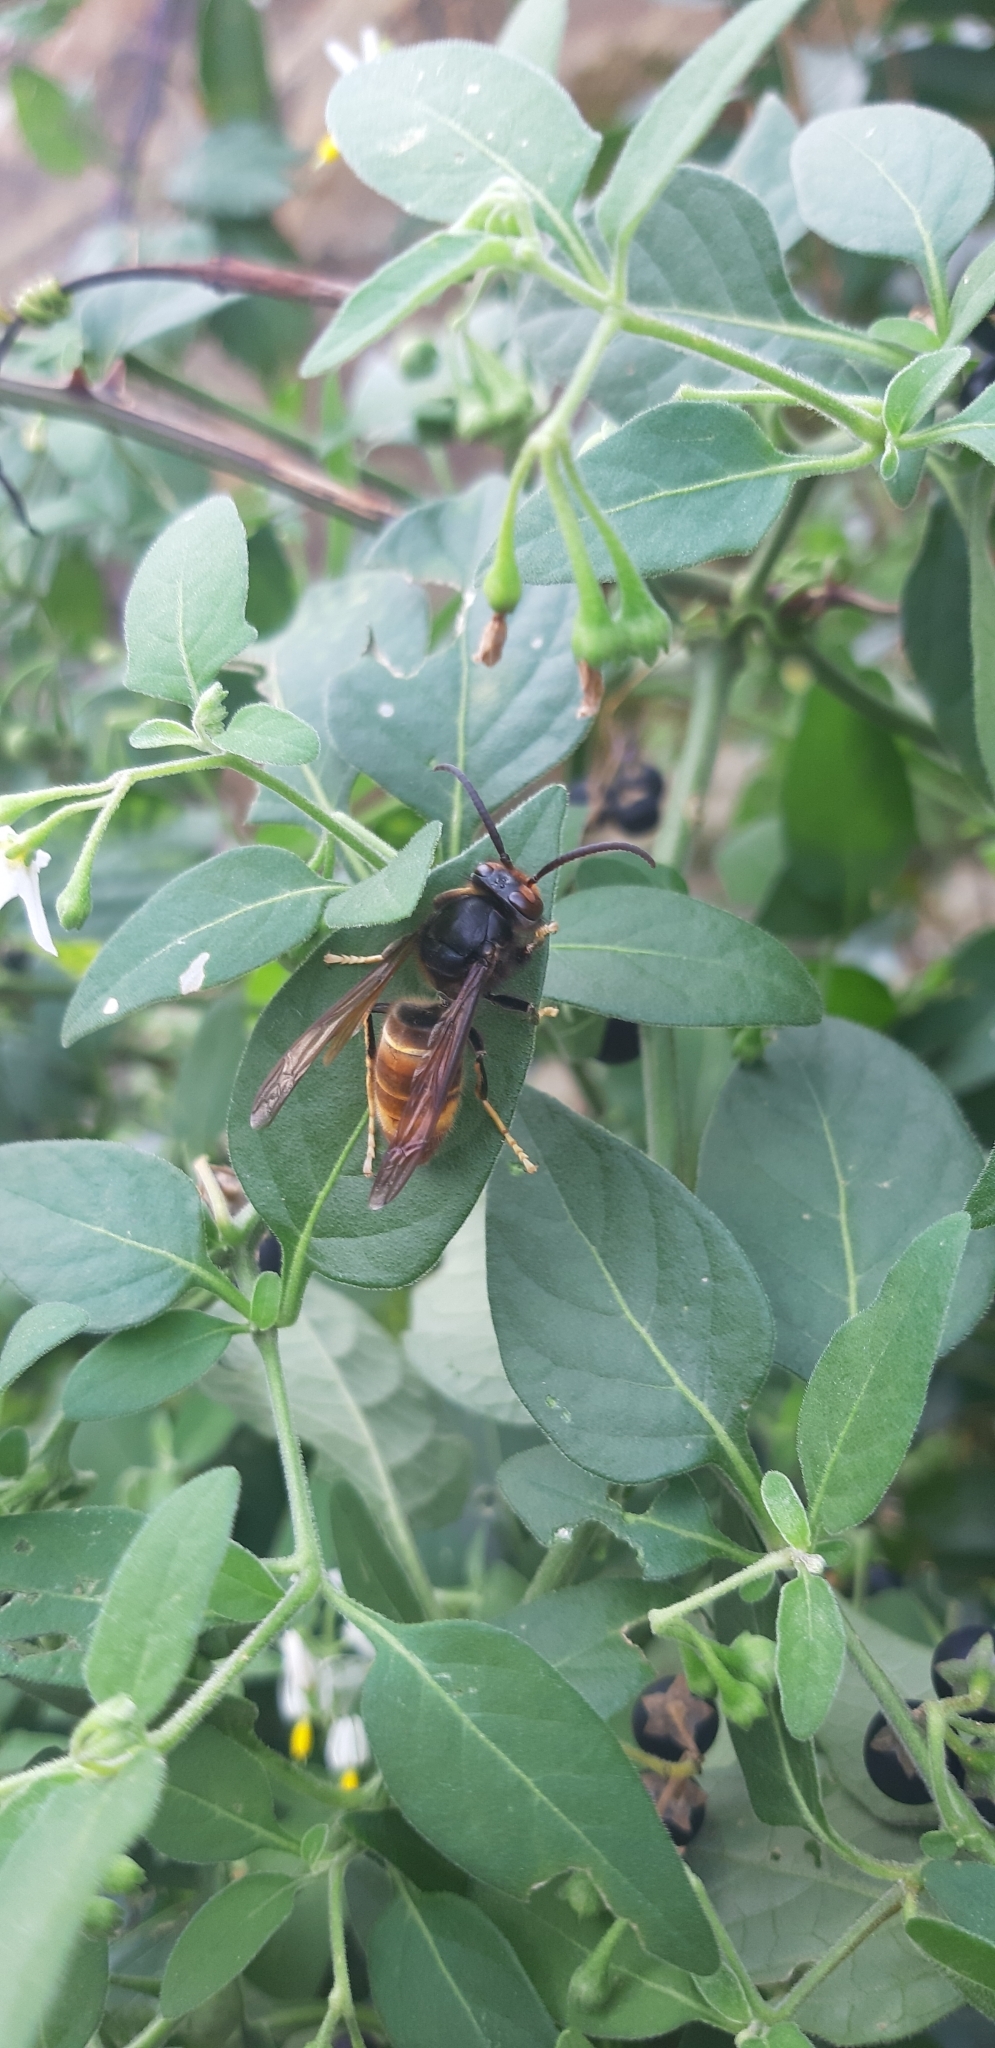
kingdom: Animalia
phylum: Arthropoda
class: Insecta
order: Hymenoptera
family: Vespidae
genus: Vespa
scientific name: Vespa velutina
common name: Asian hornet
